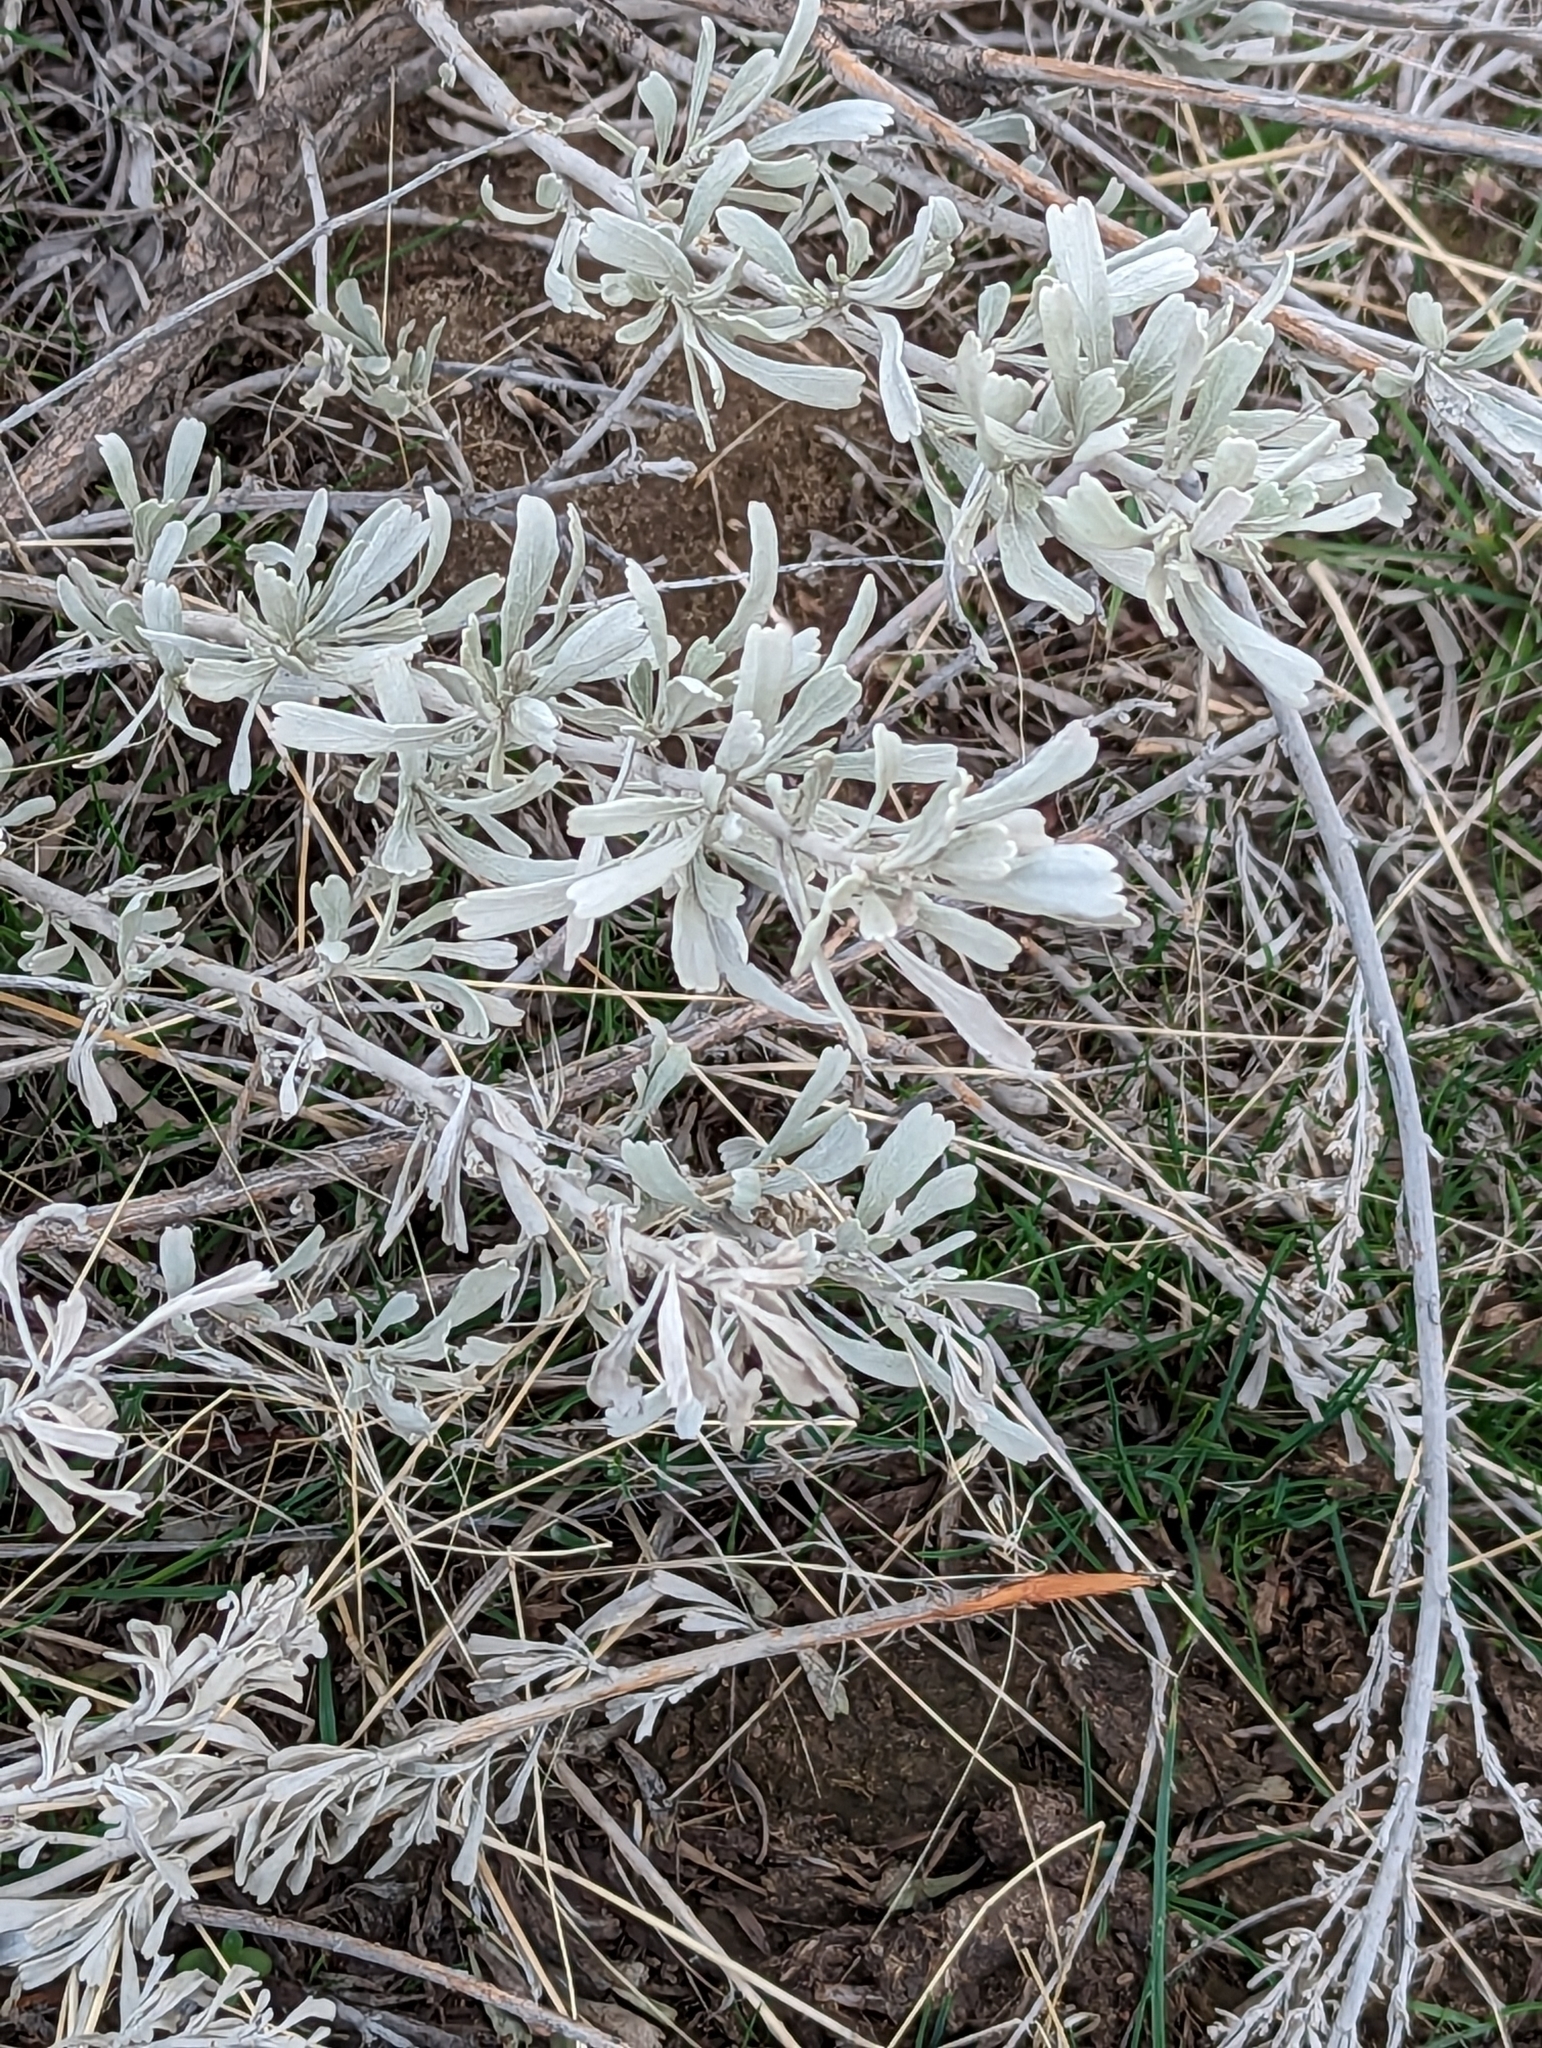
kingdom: Plantae
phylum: Tracheophyta
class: Magnoliopsida
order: Asterales
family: Asteraceae
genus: Artemisia
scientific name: Artemisia tridentata
